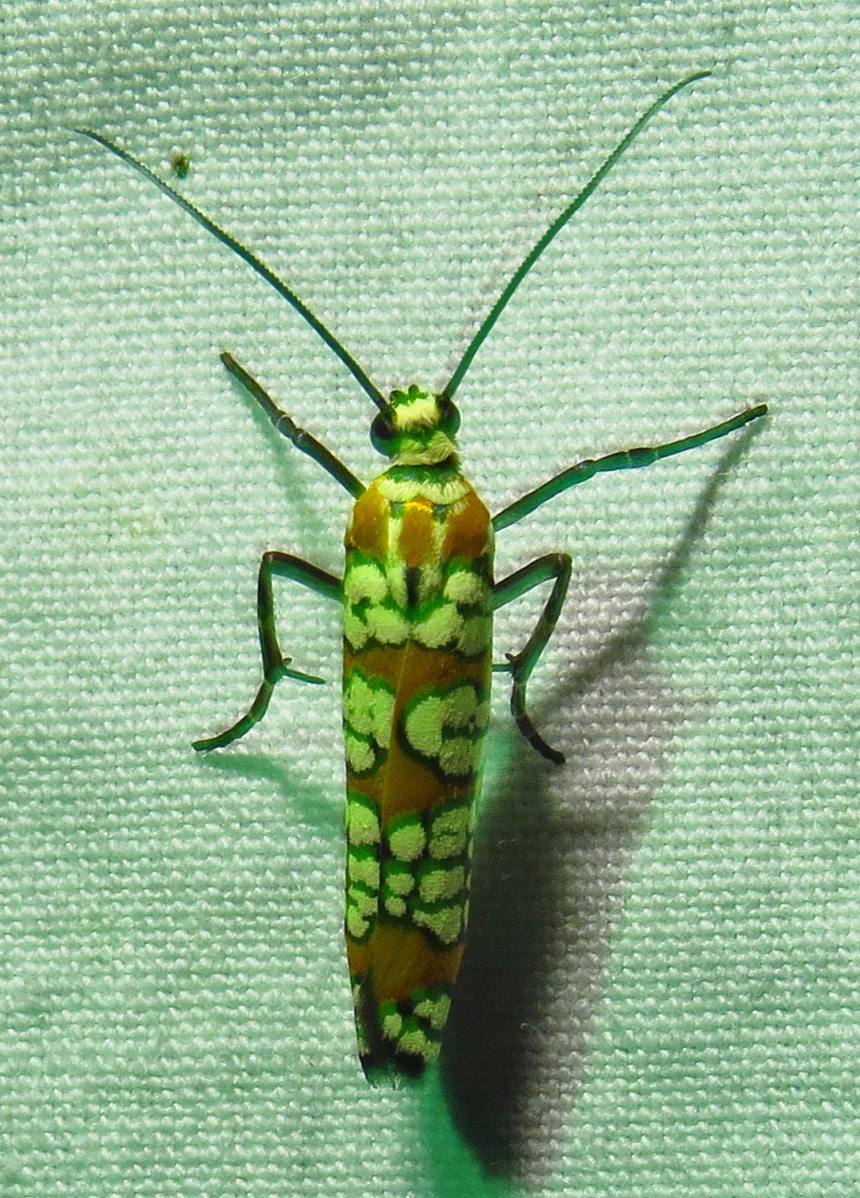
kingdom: Animalia
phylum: Arthropoda
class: Insecta
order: Lepidoptera
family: Attevidae
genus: Atteva
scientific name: Atteva punctella
